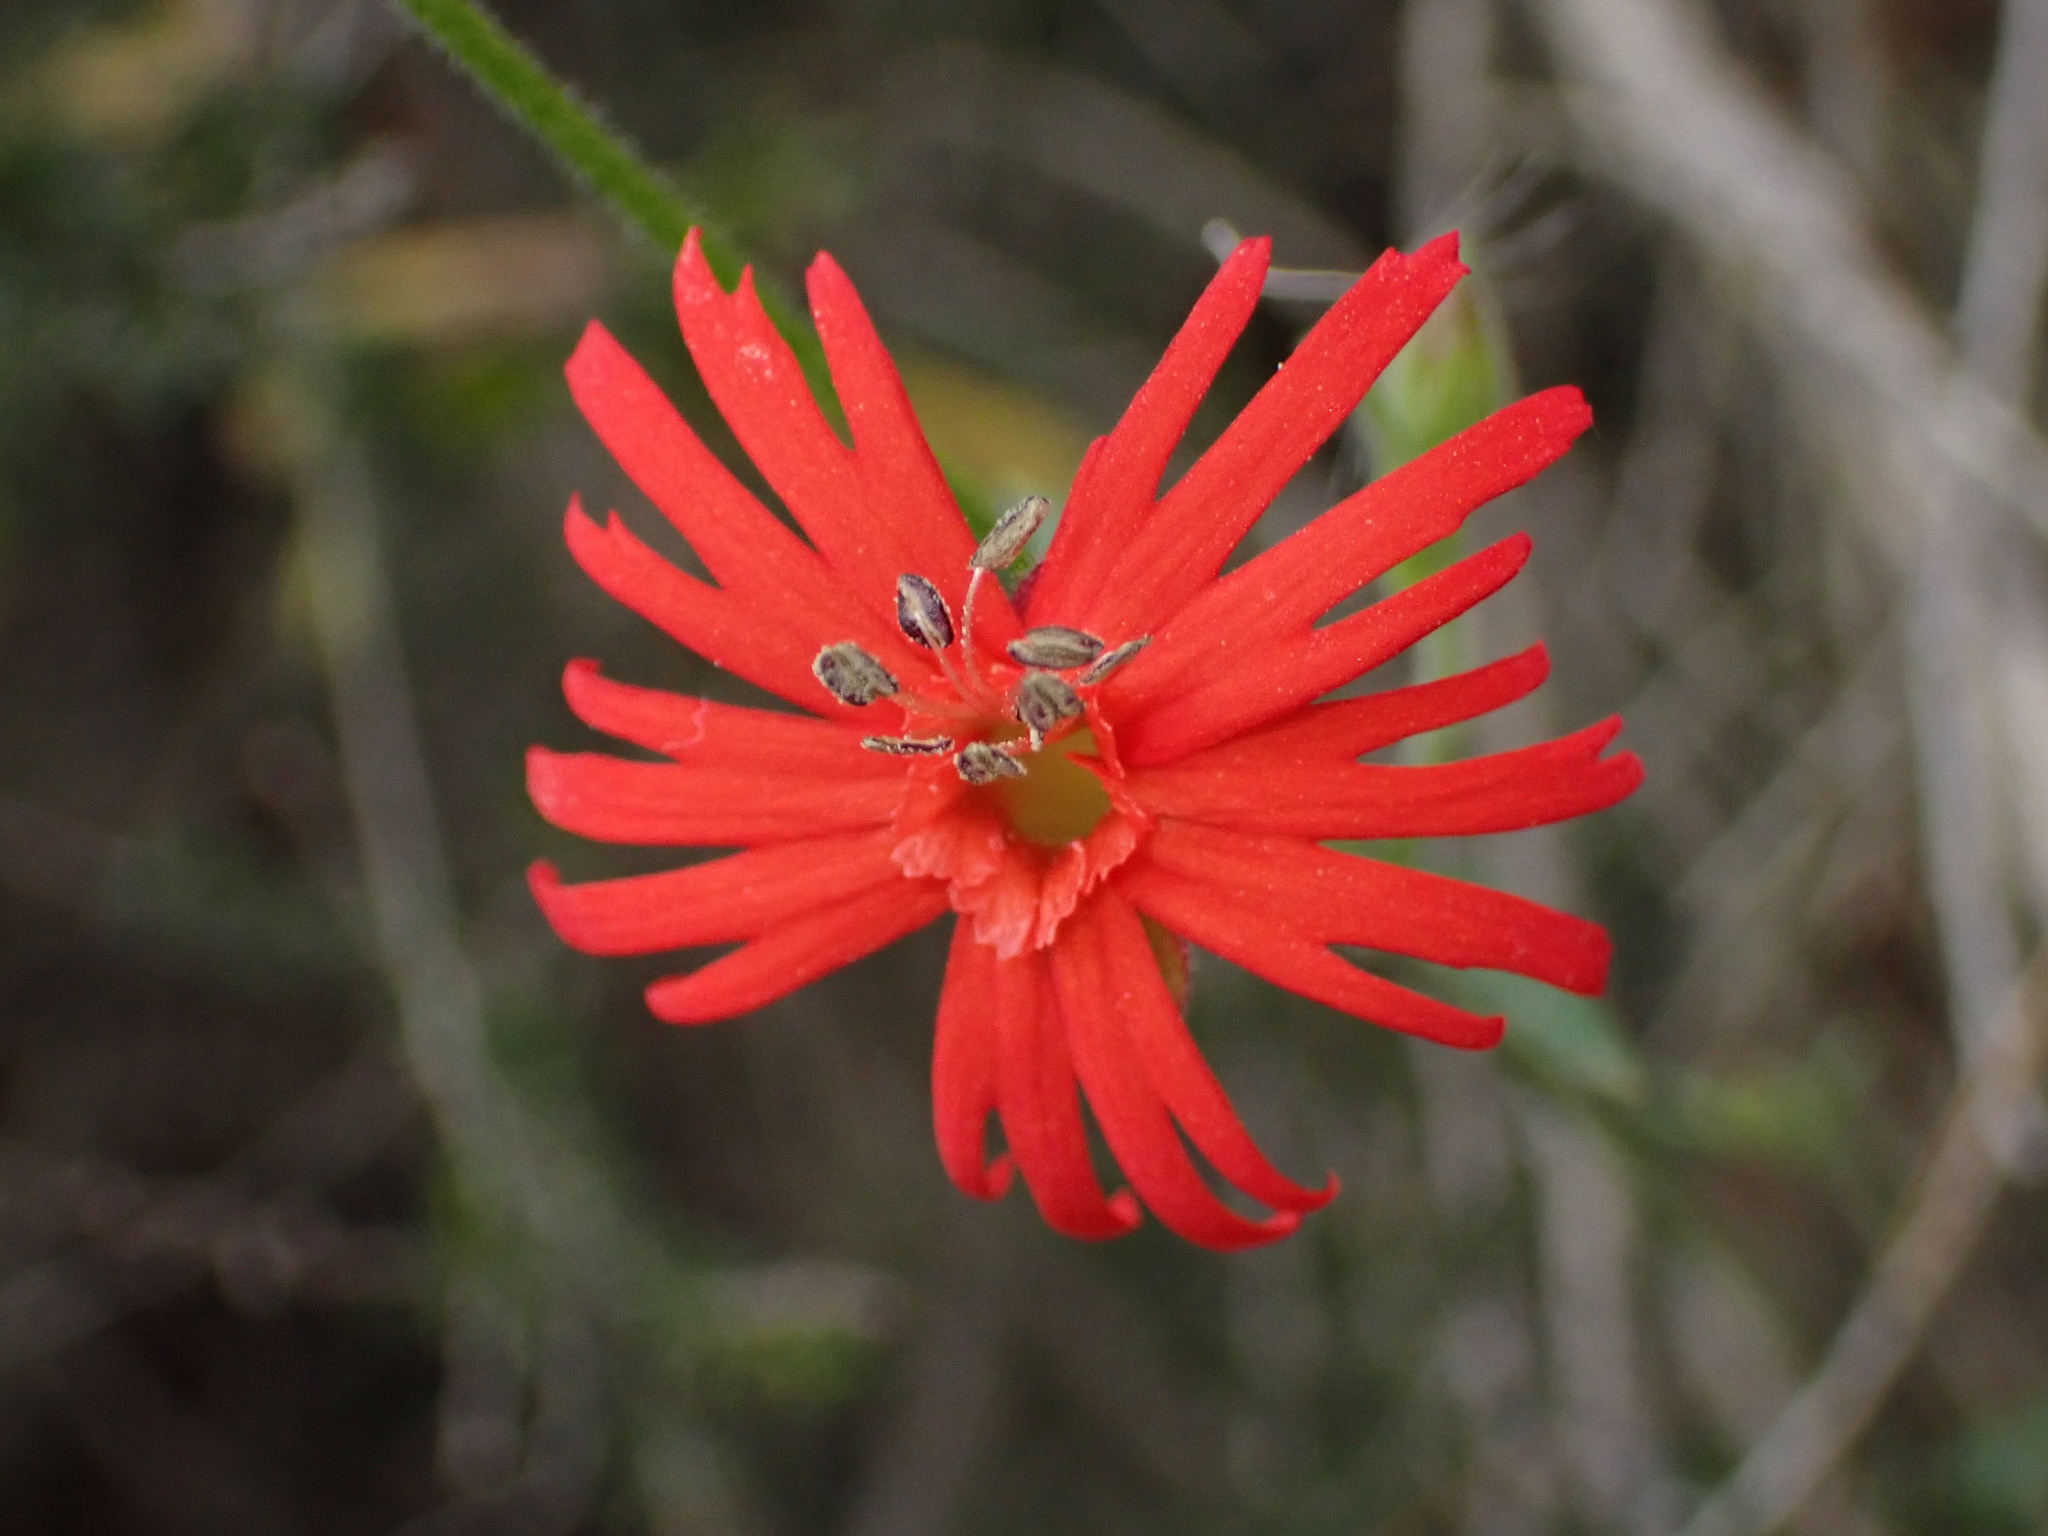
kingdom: Plantae
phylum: Tracheophyta
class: Magnoliopsida
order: Caryophyllales
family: Caryophyllaceae
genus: Silene
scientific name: Silene laciniata
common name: Indian-pink
